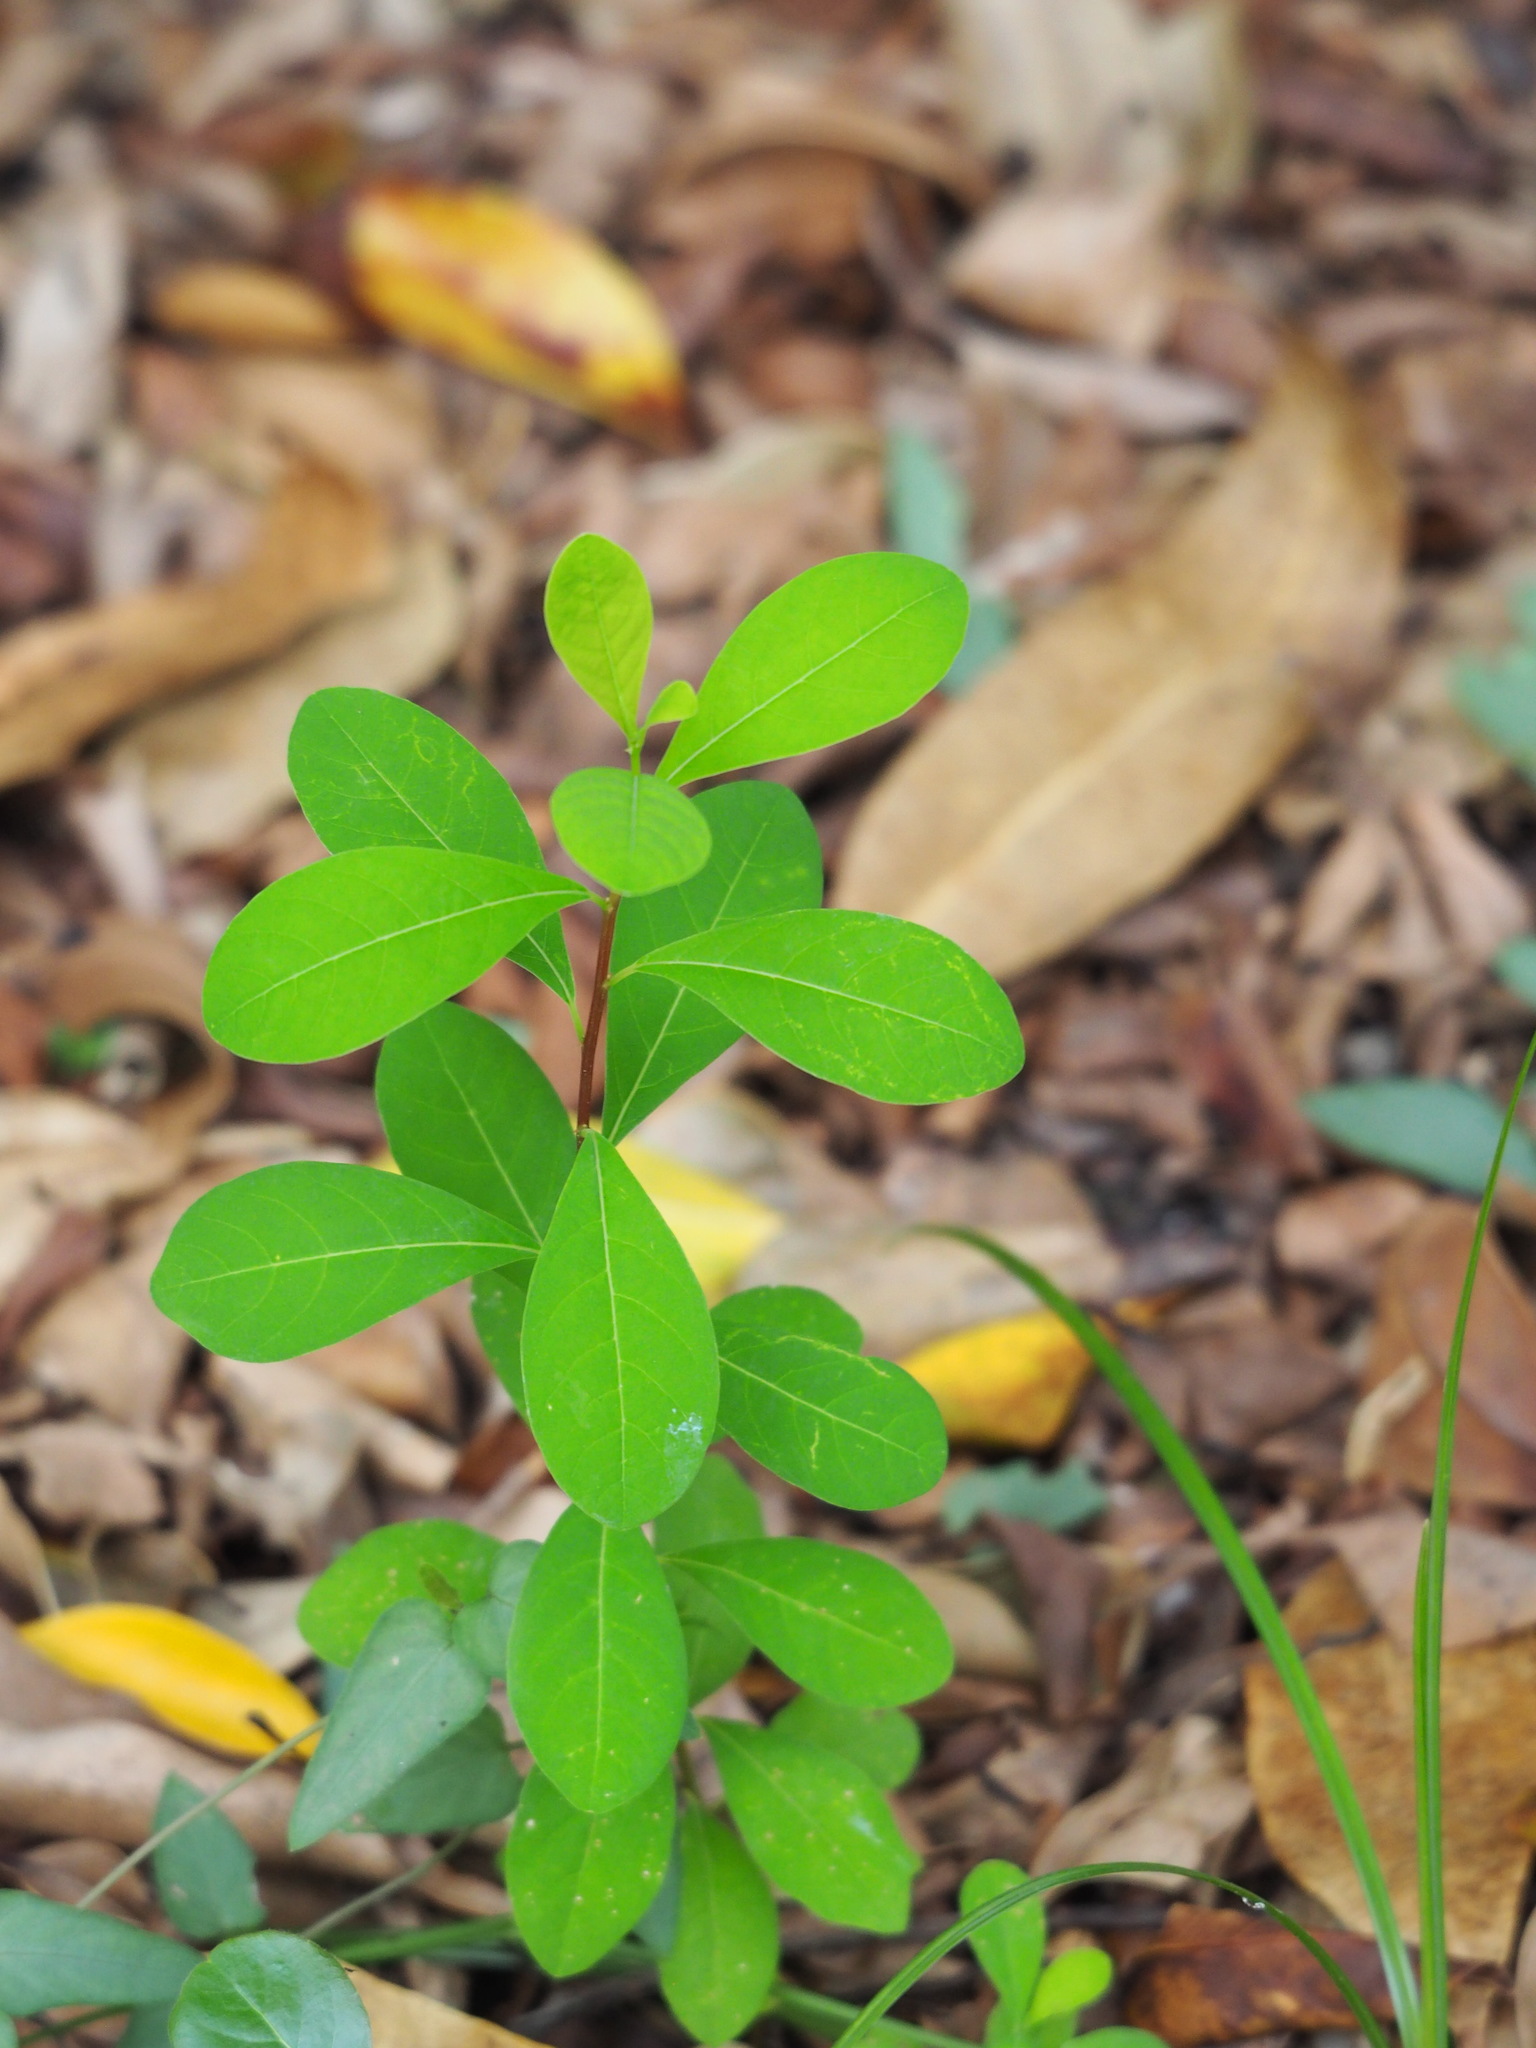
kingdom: Plantae
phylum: Tracheophyta
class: Magnoliopsida
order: Malpighiales
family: Phyllanthaceae
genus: Flueggea
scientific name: Flueggea virosa
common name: Common bushweed
